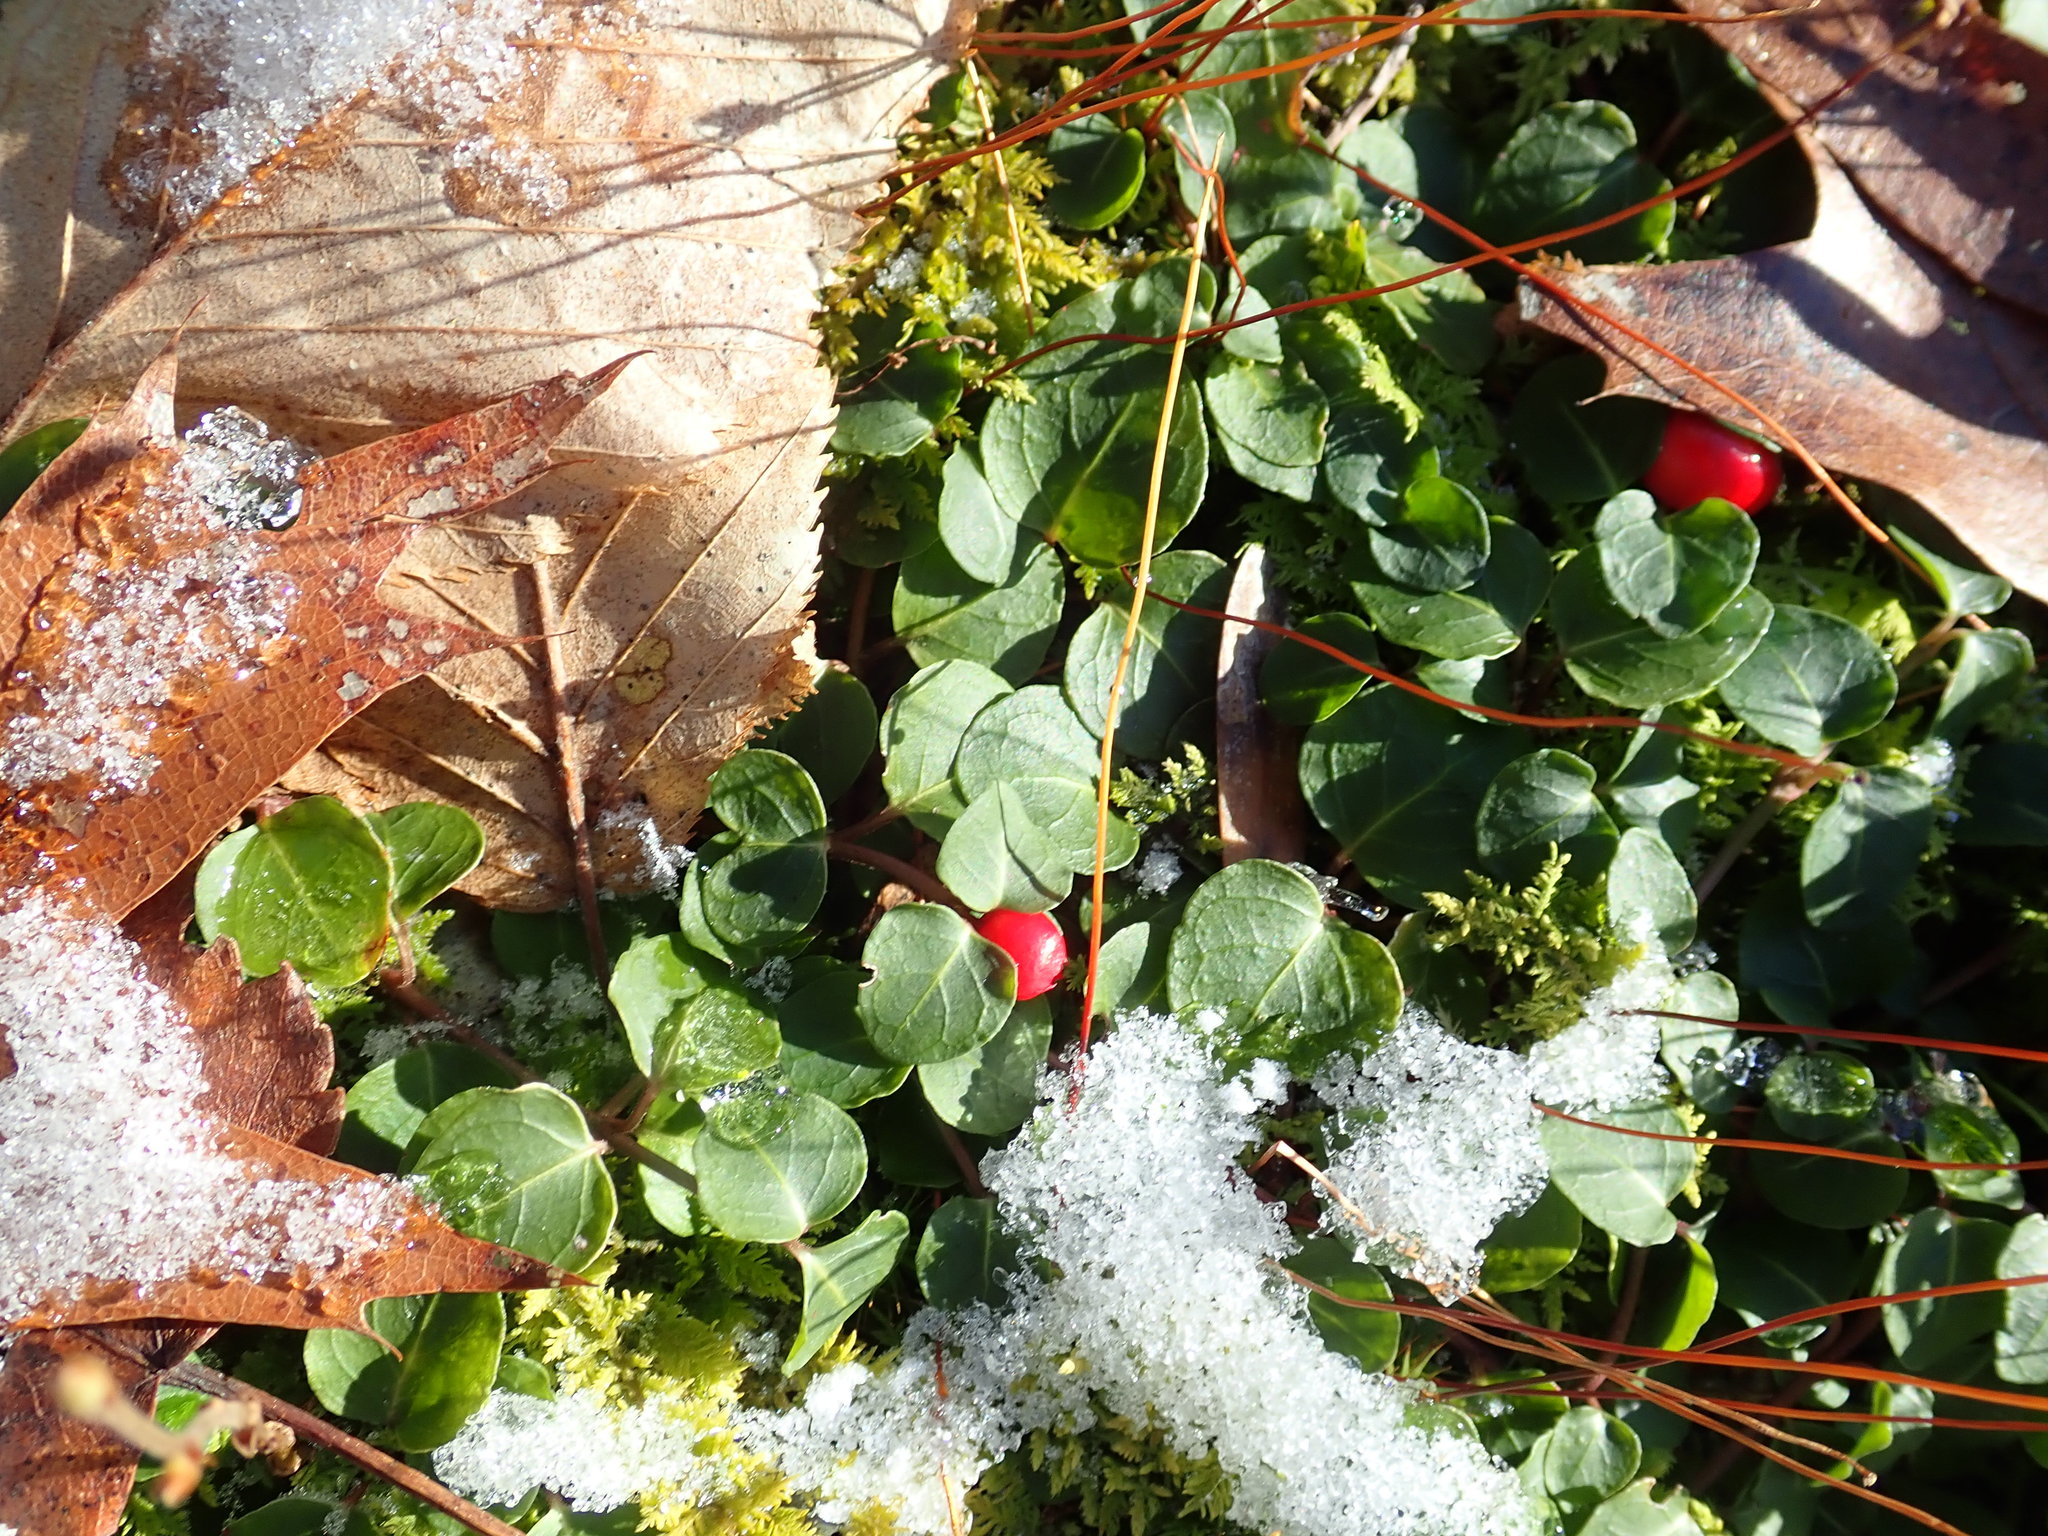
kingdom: Plantae
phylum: Tracheophyta
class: Magnoliopsida
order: Gentianales
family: Rubiaceae
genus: Mitchella
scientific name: Mitchella repens
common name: Partridge-berry
